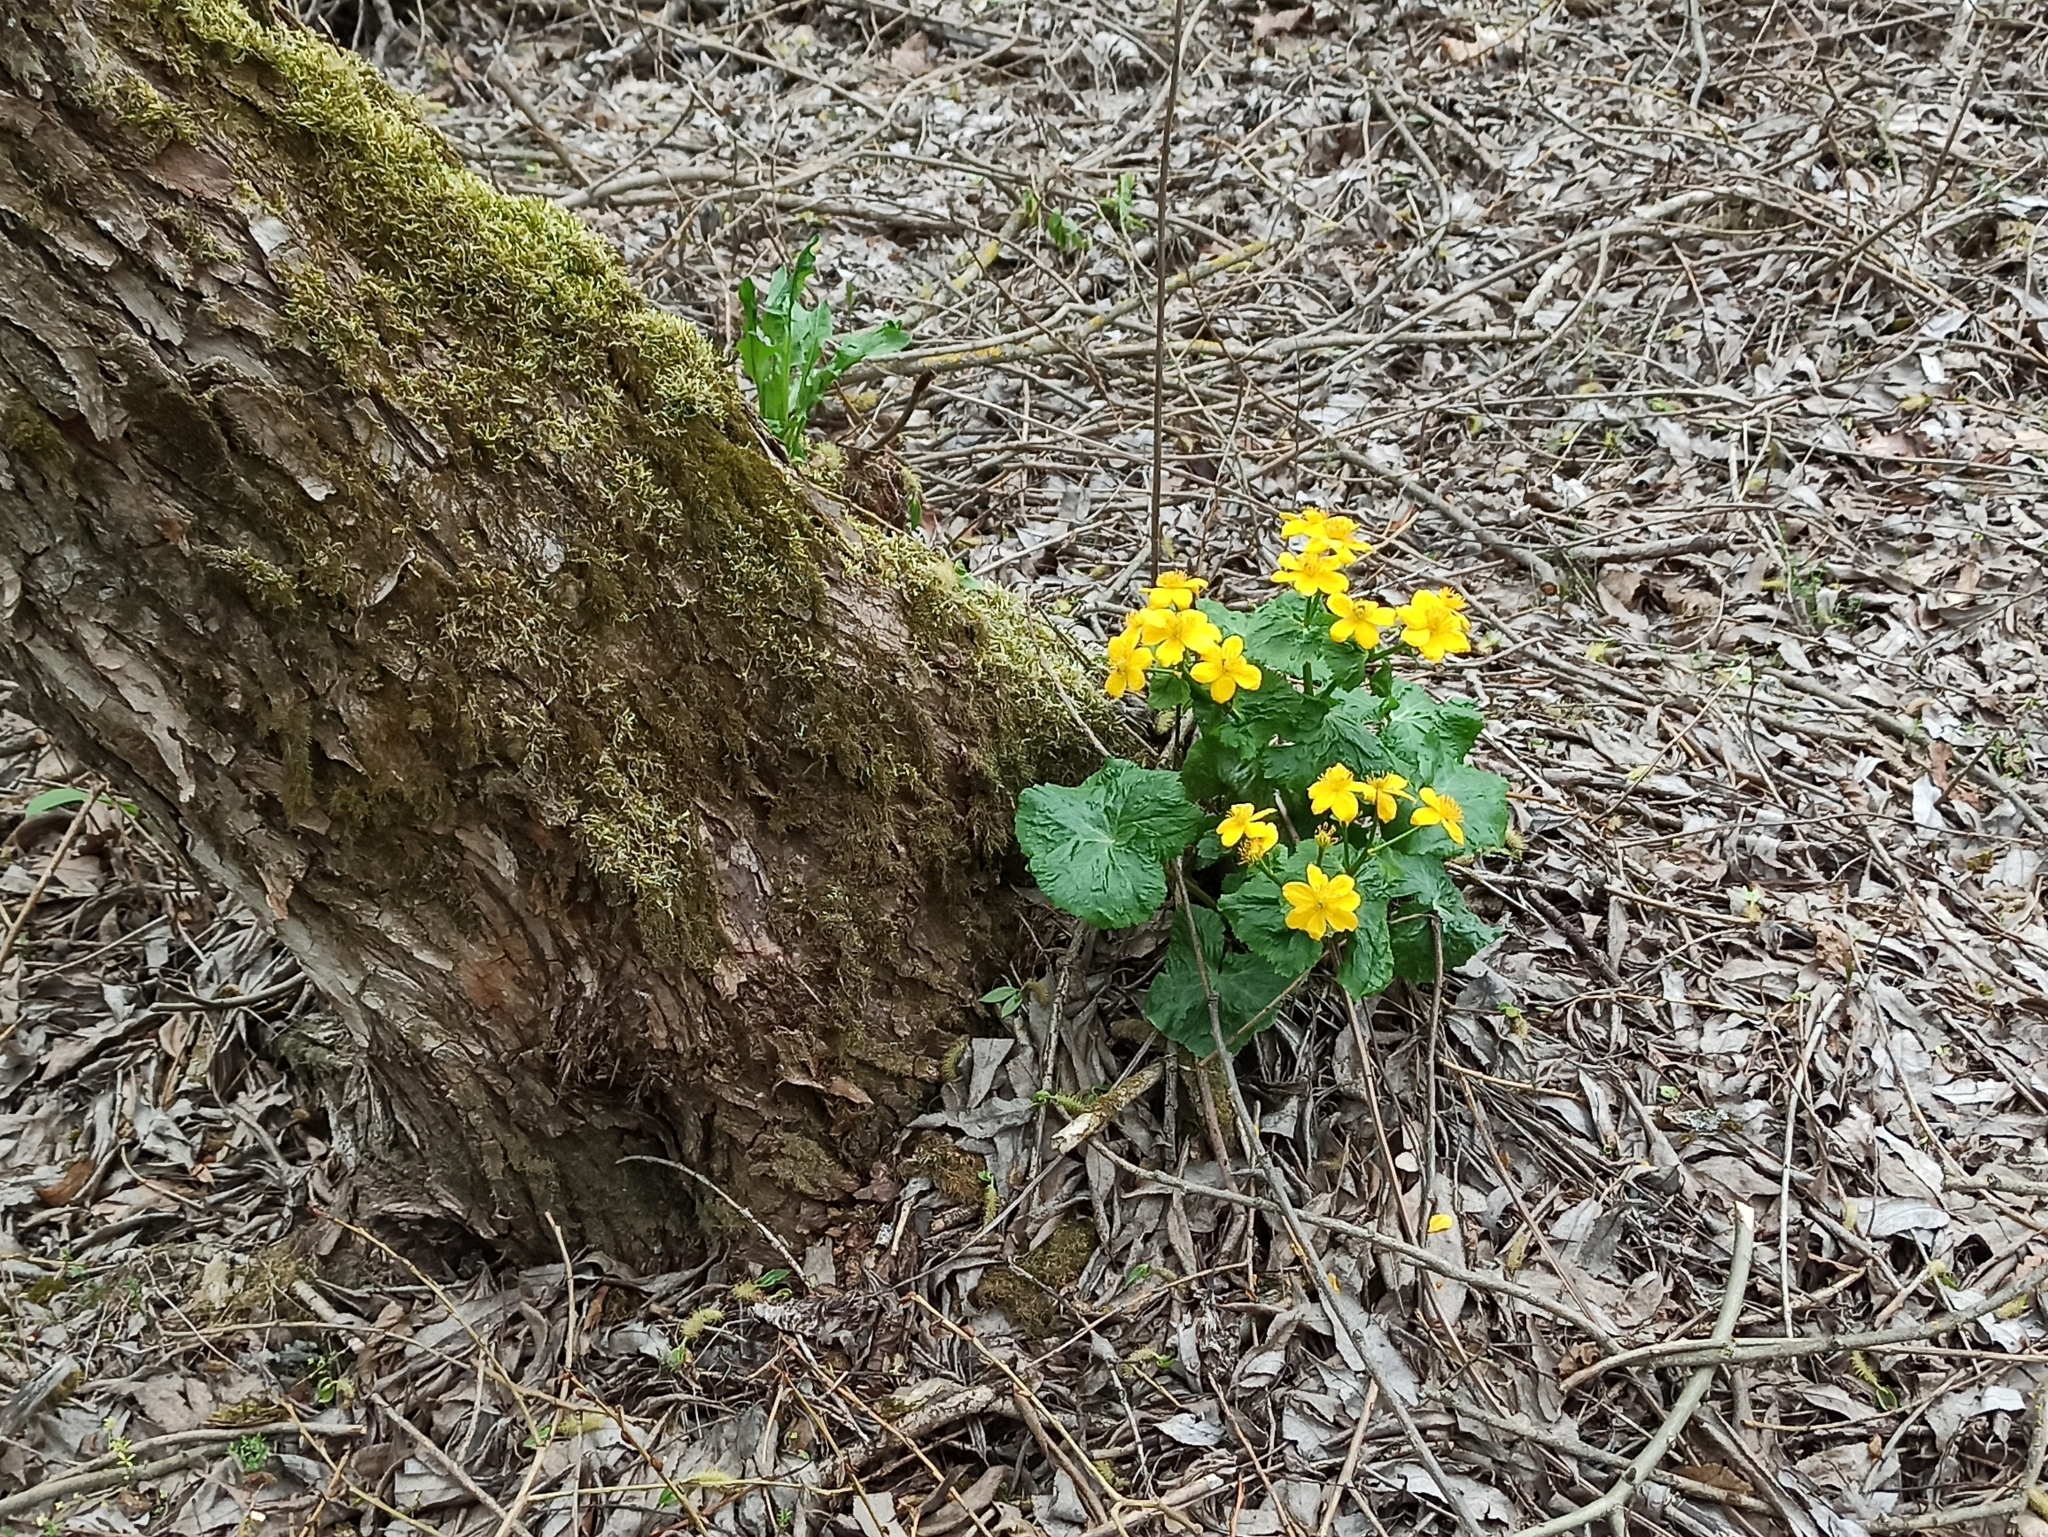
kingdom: Plantae
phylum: Tracheophyta
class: Magnoliopsida
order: Ranunculales
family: Ranunculaceae
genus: Caltha
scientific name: Caltha palustris
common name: Marsh marigold
